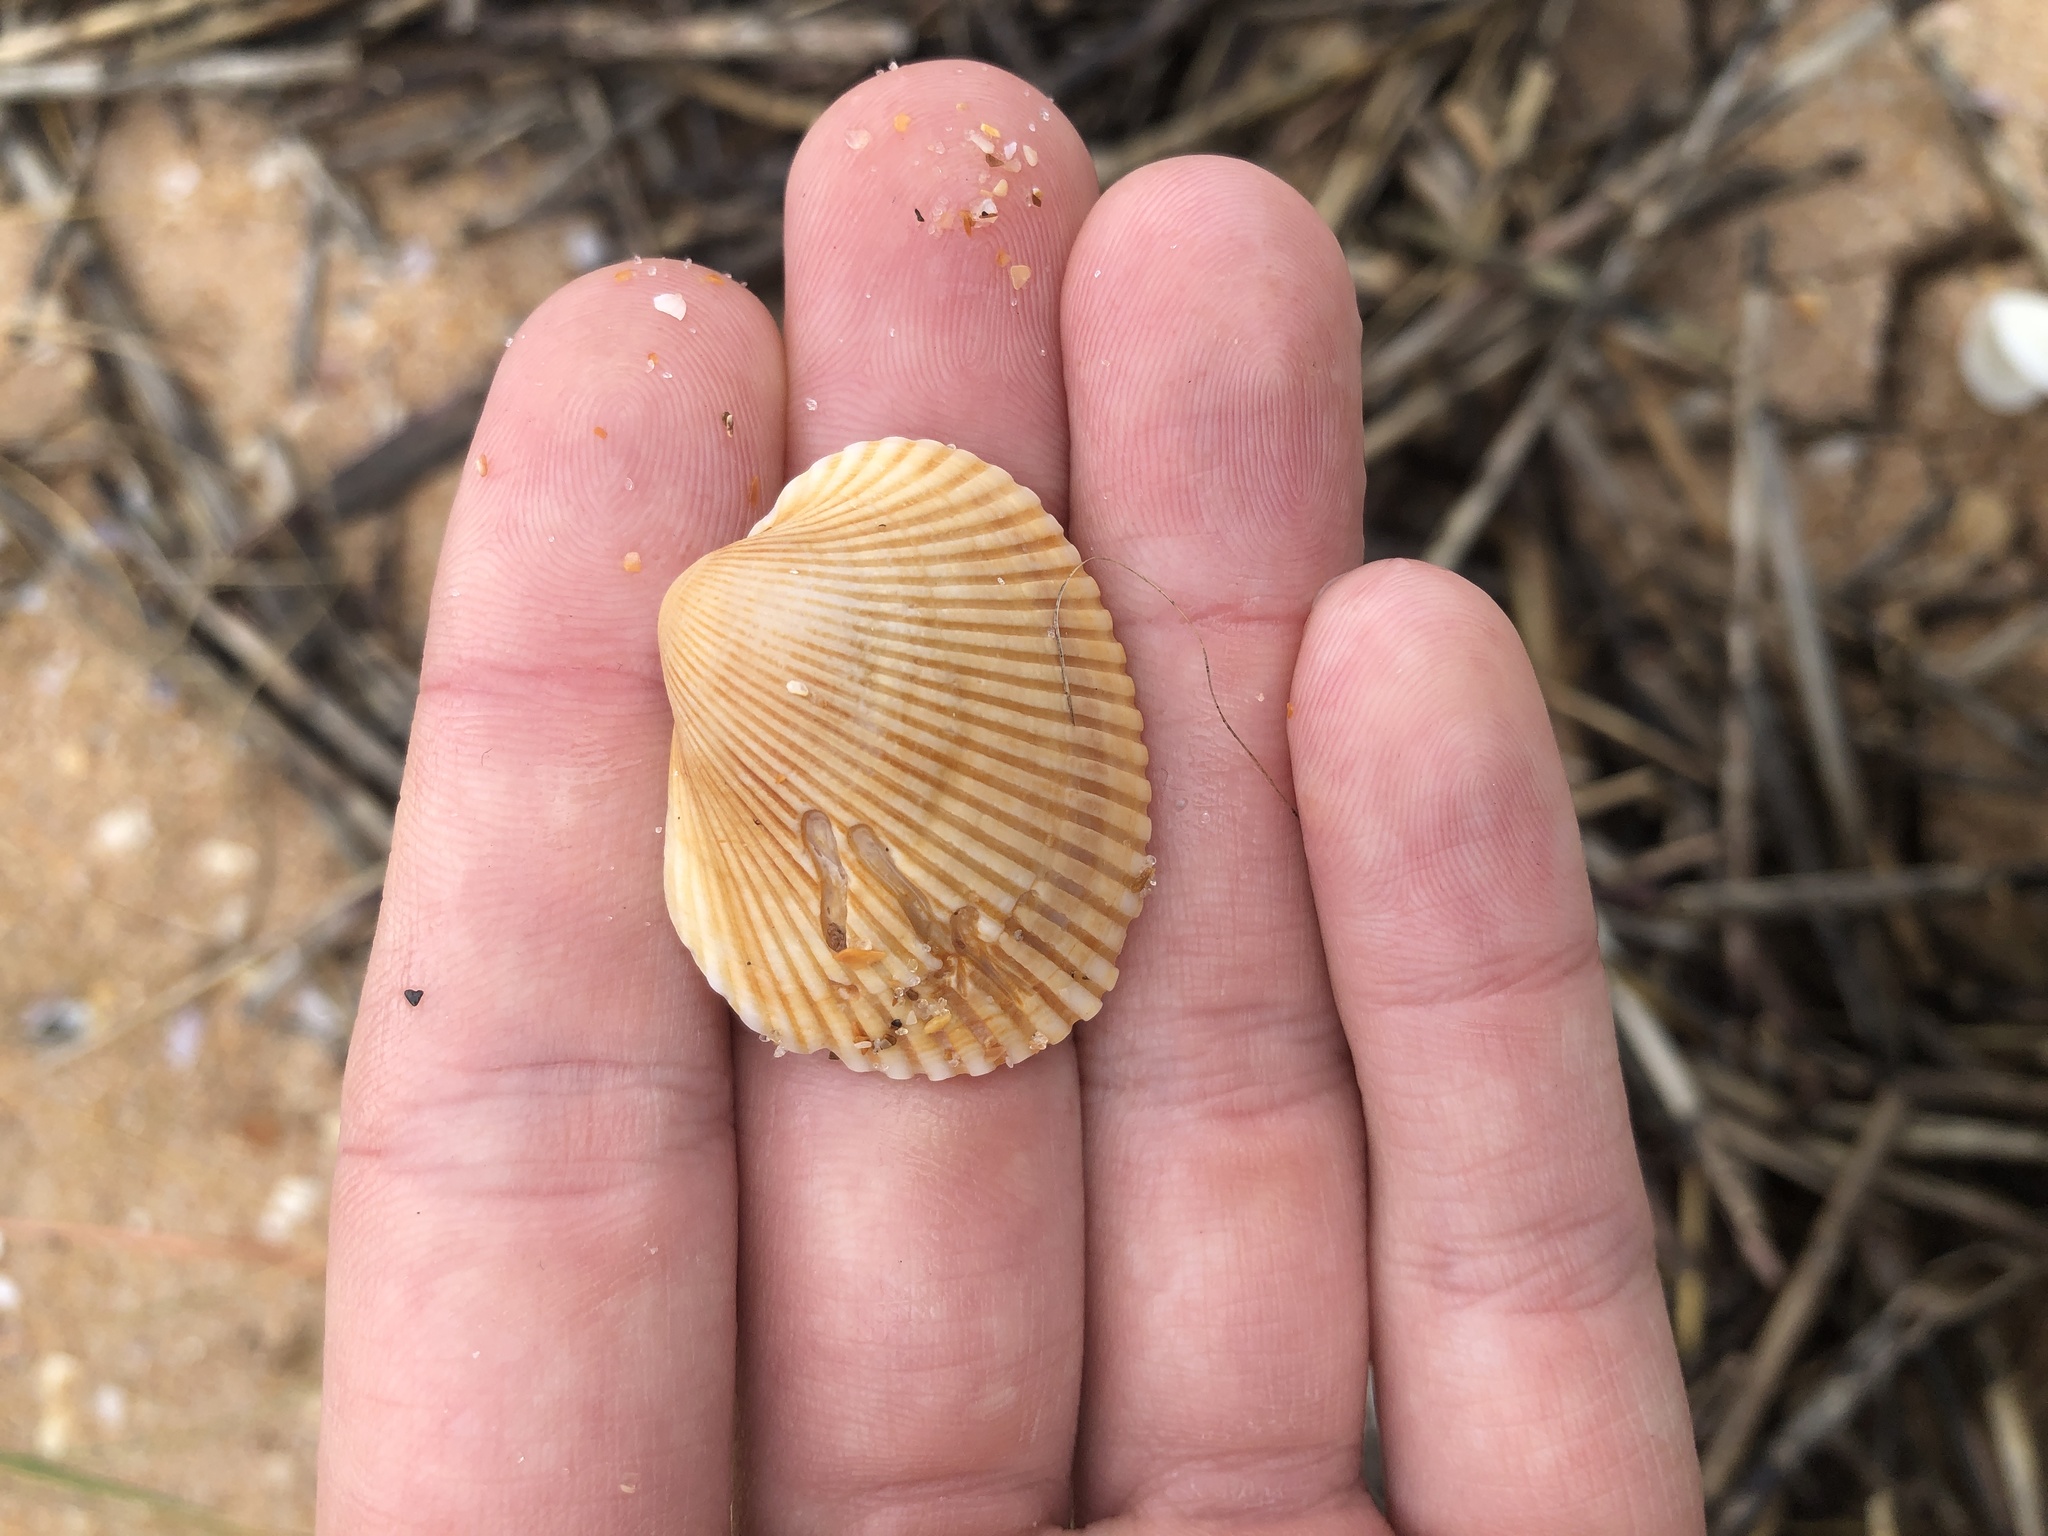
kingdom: Animalia
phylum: Mollusca
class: Bivalvia
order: Arcida
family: Arcidae
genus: Lunarca
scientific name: Lunarca ovalis
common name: Blood ark
